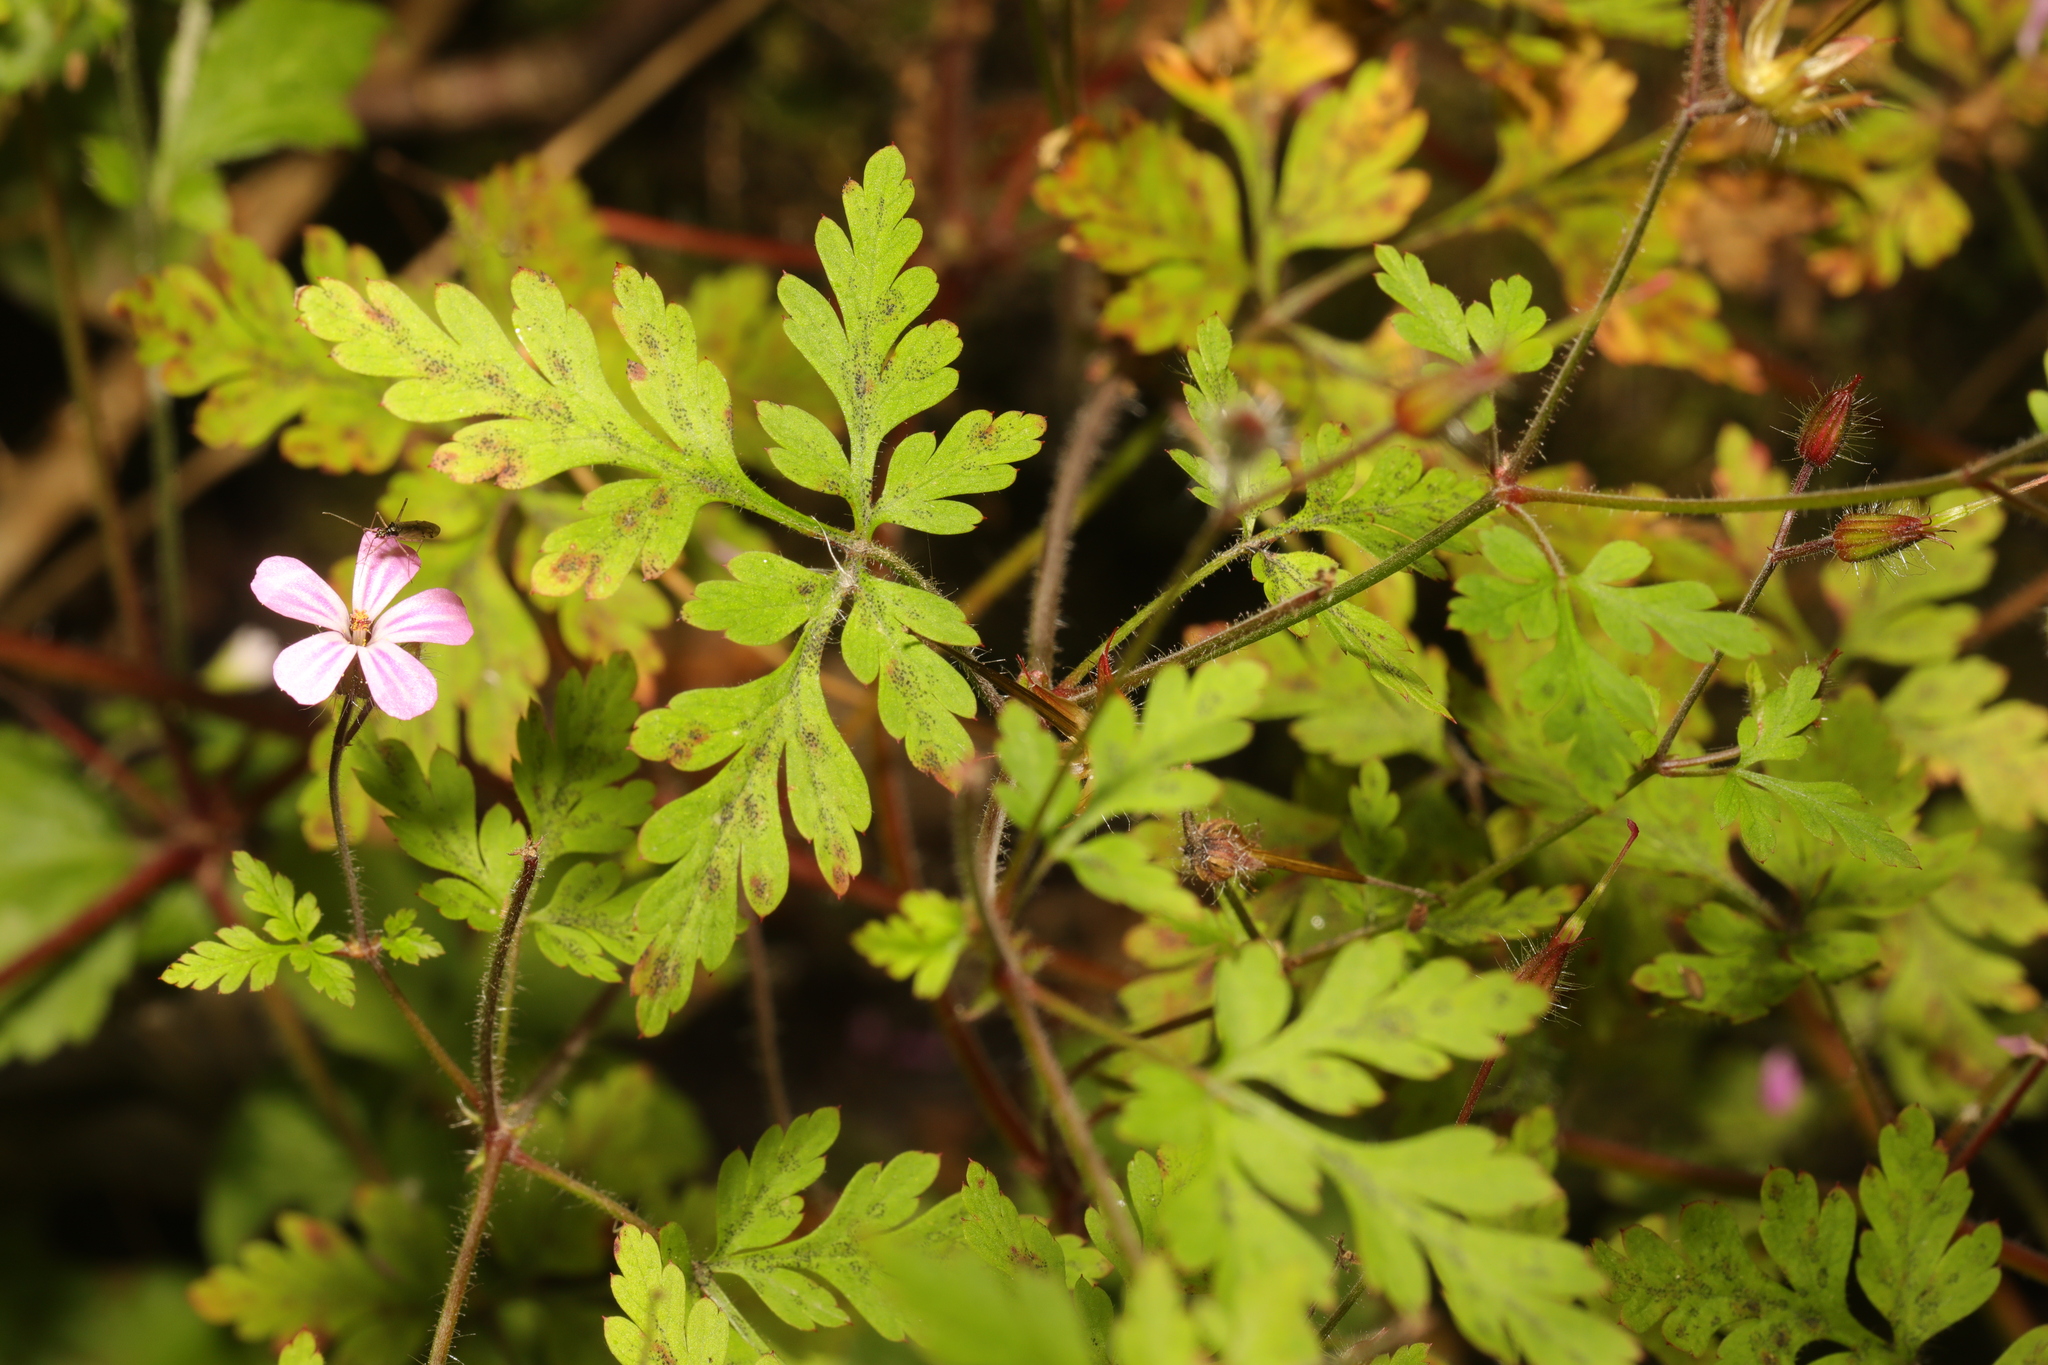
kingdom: Plantae
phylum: Tracheophyta
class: Magnoliopsida
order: Geraniales
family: Geraniaceae
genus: Geranium
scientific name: Geranium robertianum
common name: Herb-robert
